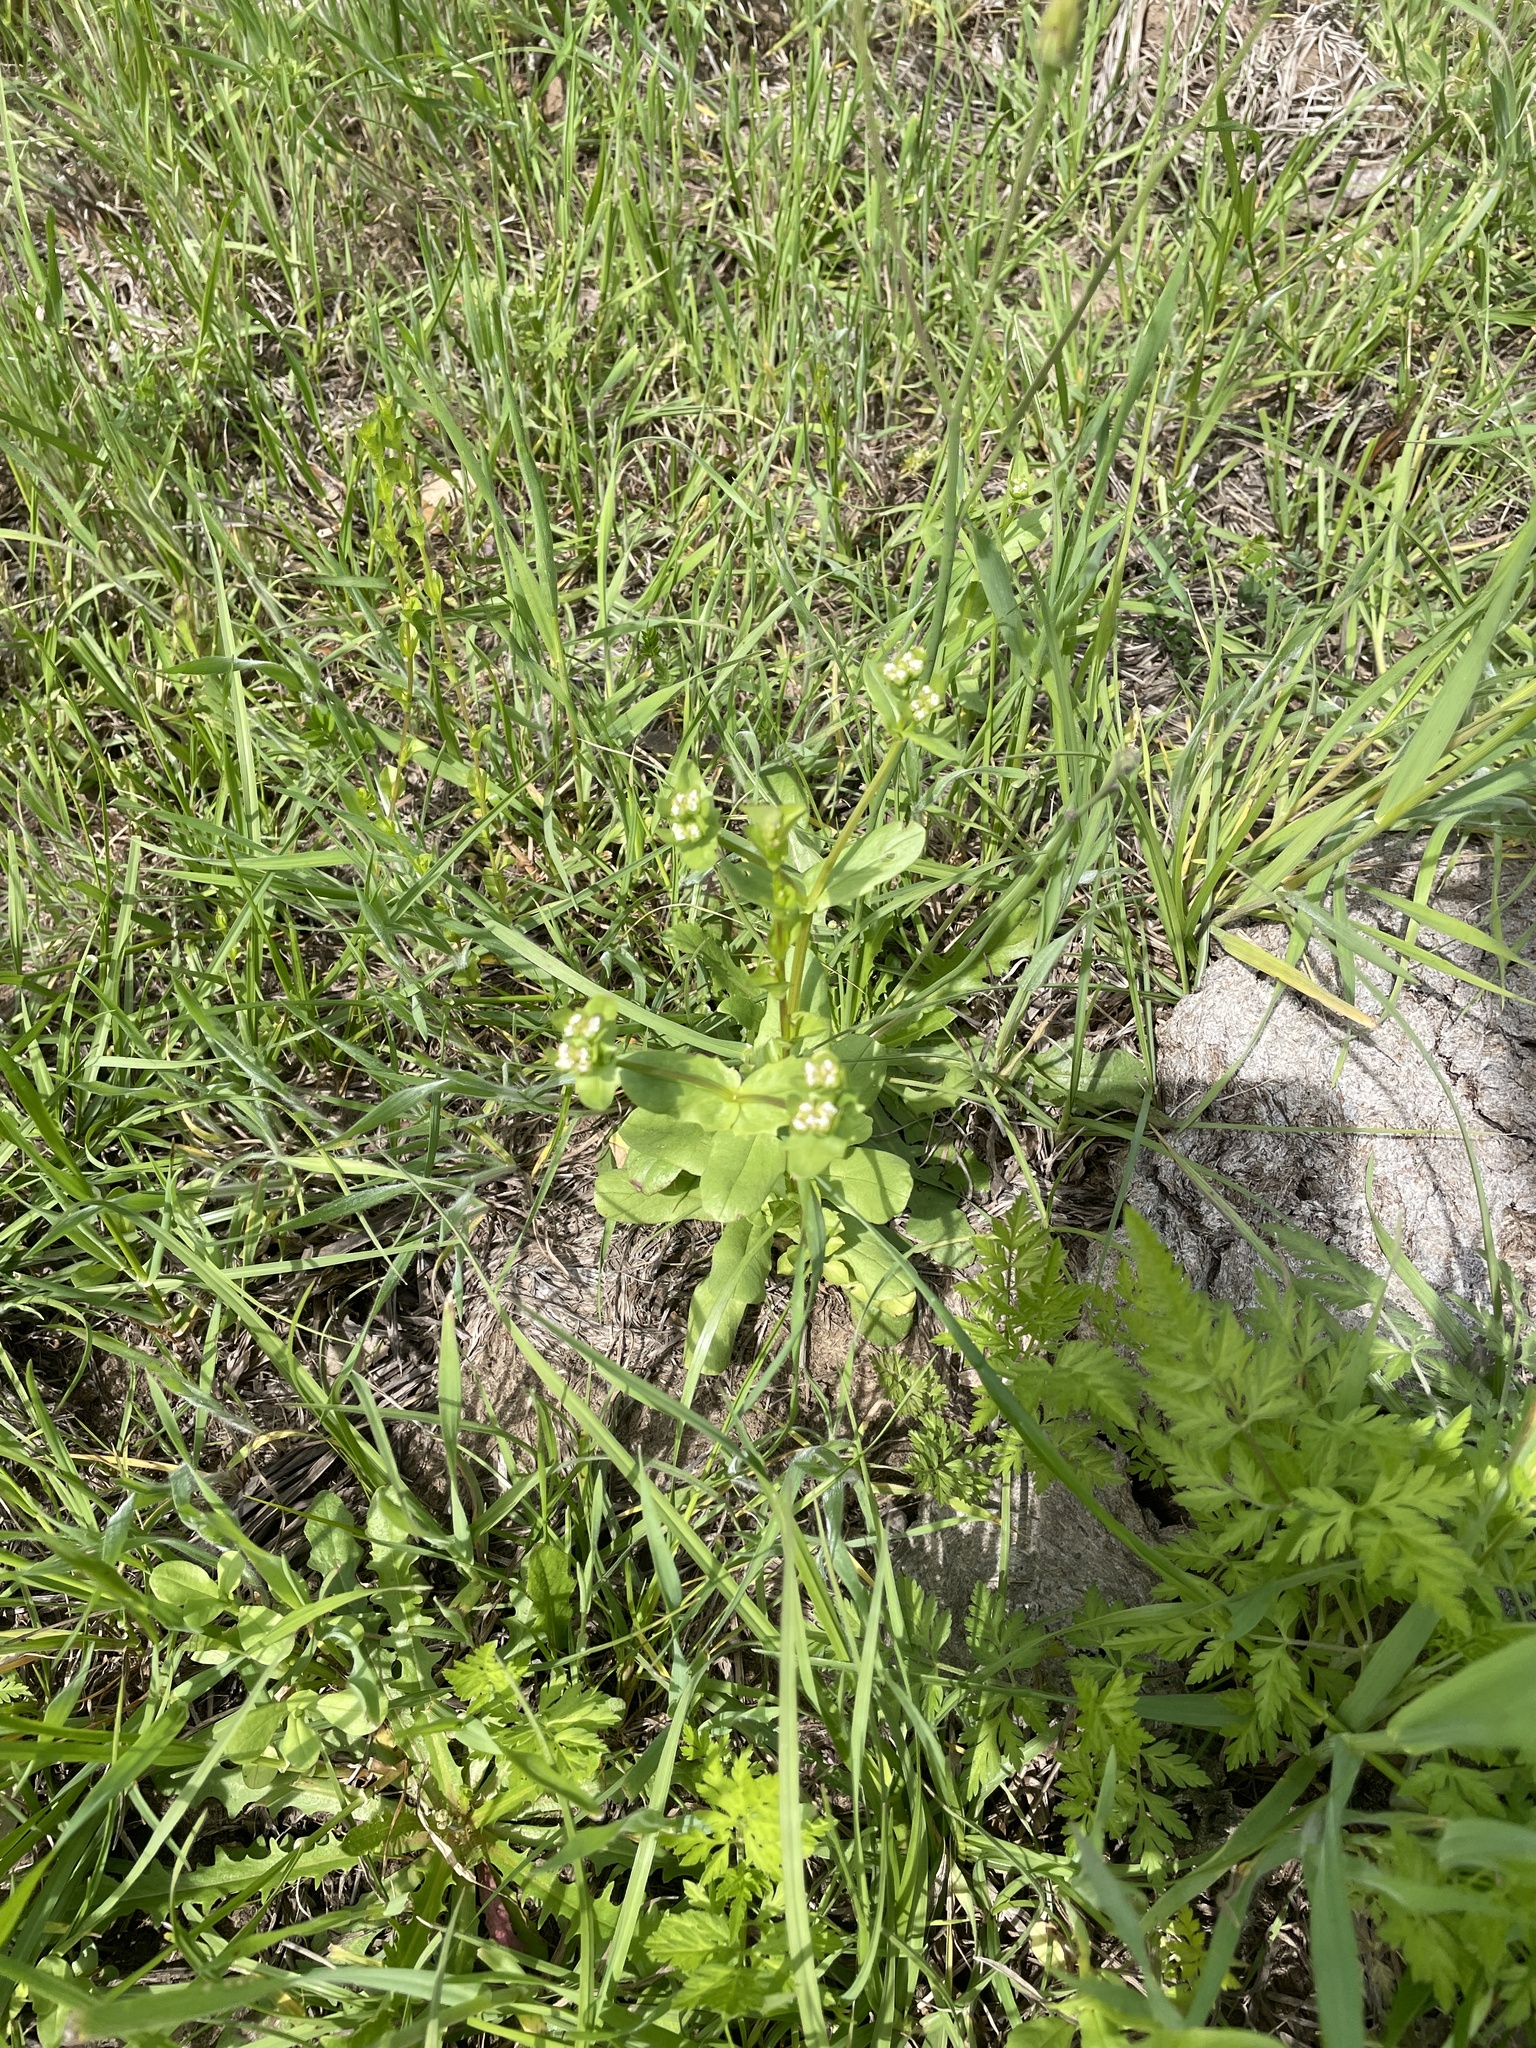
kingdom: Plantae
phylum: Tracheophyta
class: Magnoliopsida
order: Dipsacales
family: Caprifoliaceae
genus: Valerianella
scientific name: Valerianella radiata
